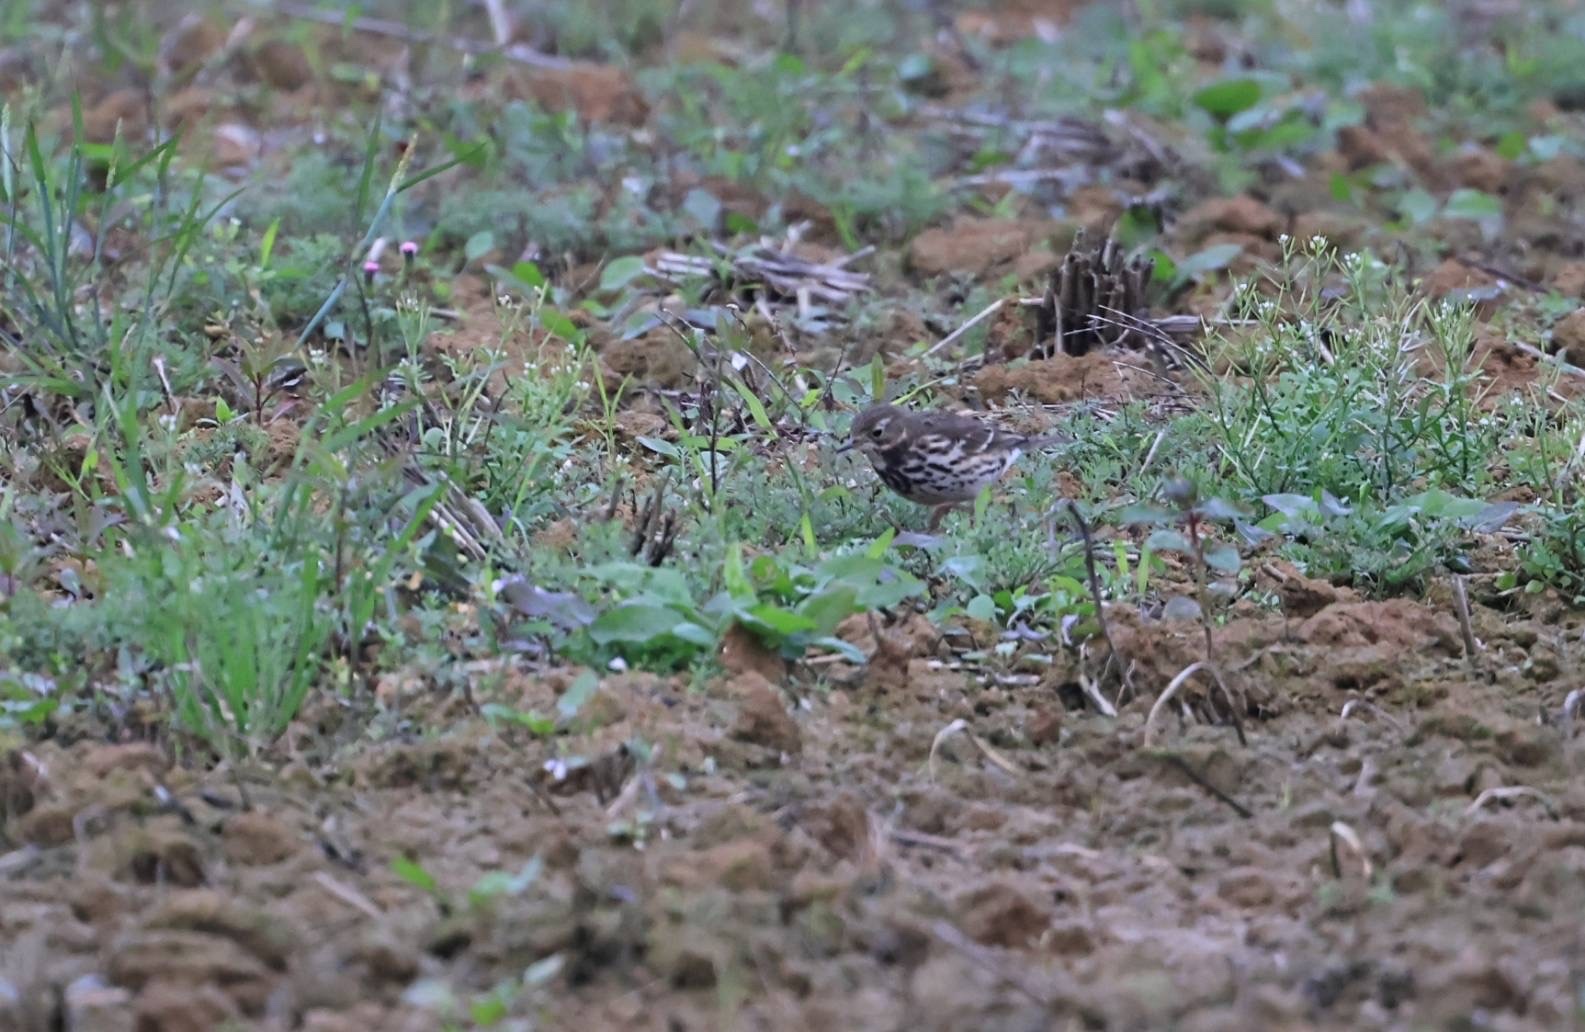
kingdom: Animalia
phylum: Chordata
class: Aves
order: Passeriformes
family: Motacillidae
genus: Anthus
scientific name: Anthus rubescens
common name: Buff-bellied pipit
